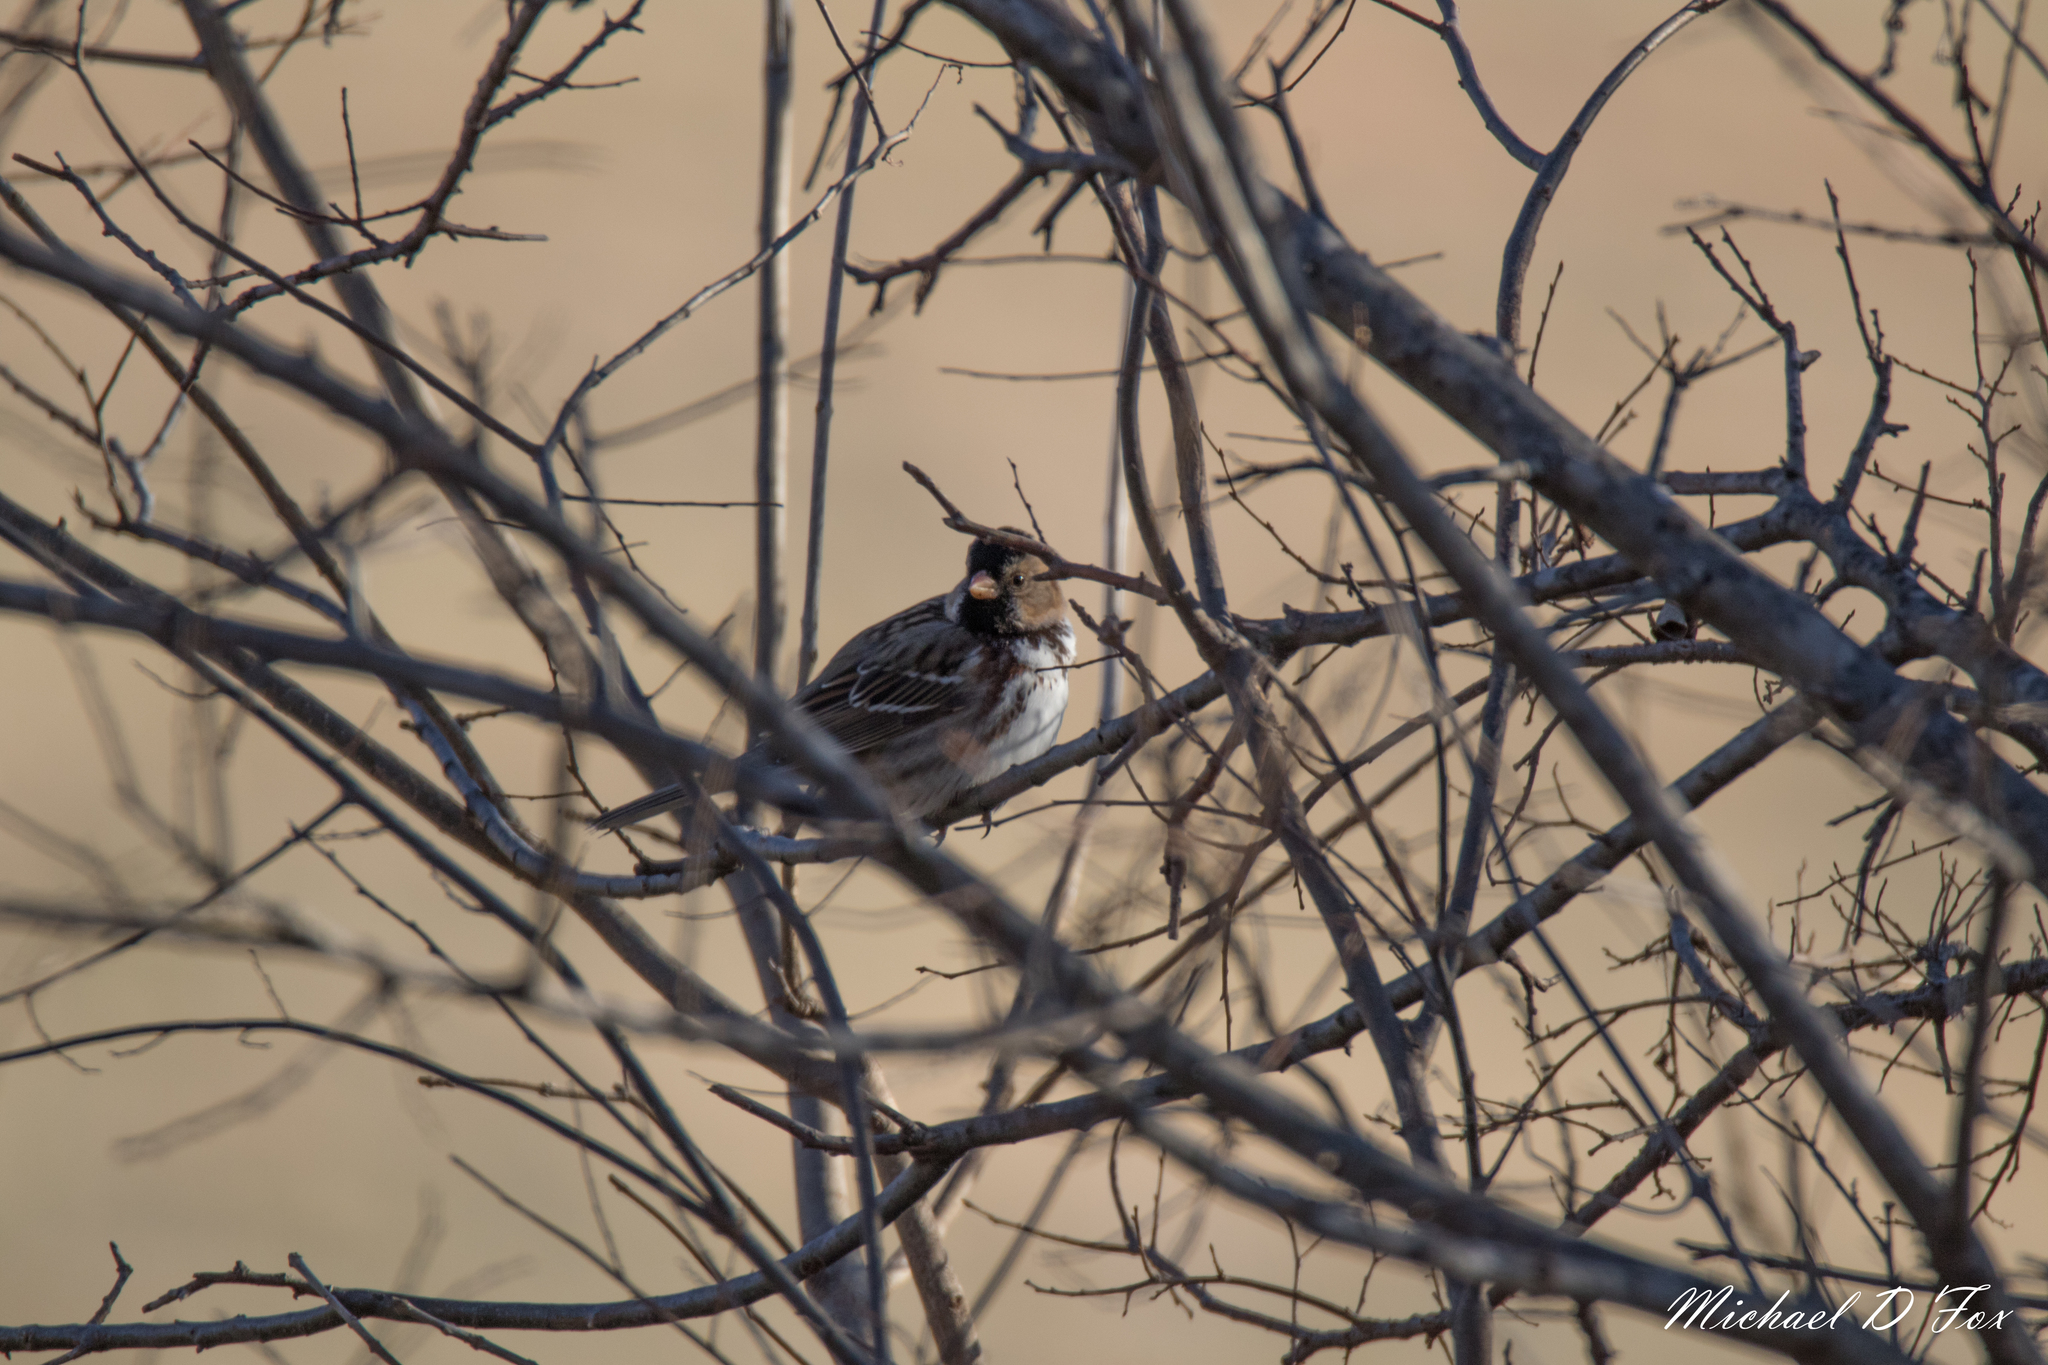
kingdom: Animalia
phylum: Chordata
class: Aves
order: Passeriformes
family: Passerellidae
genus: Zonotrichia
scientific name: Zonotrichia querula
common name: Harris's sparrow
